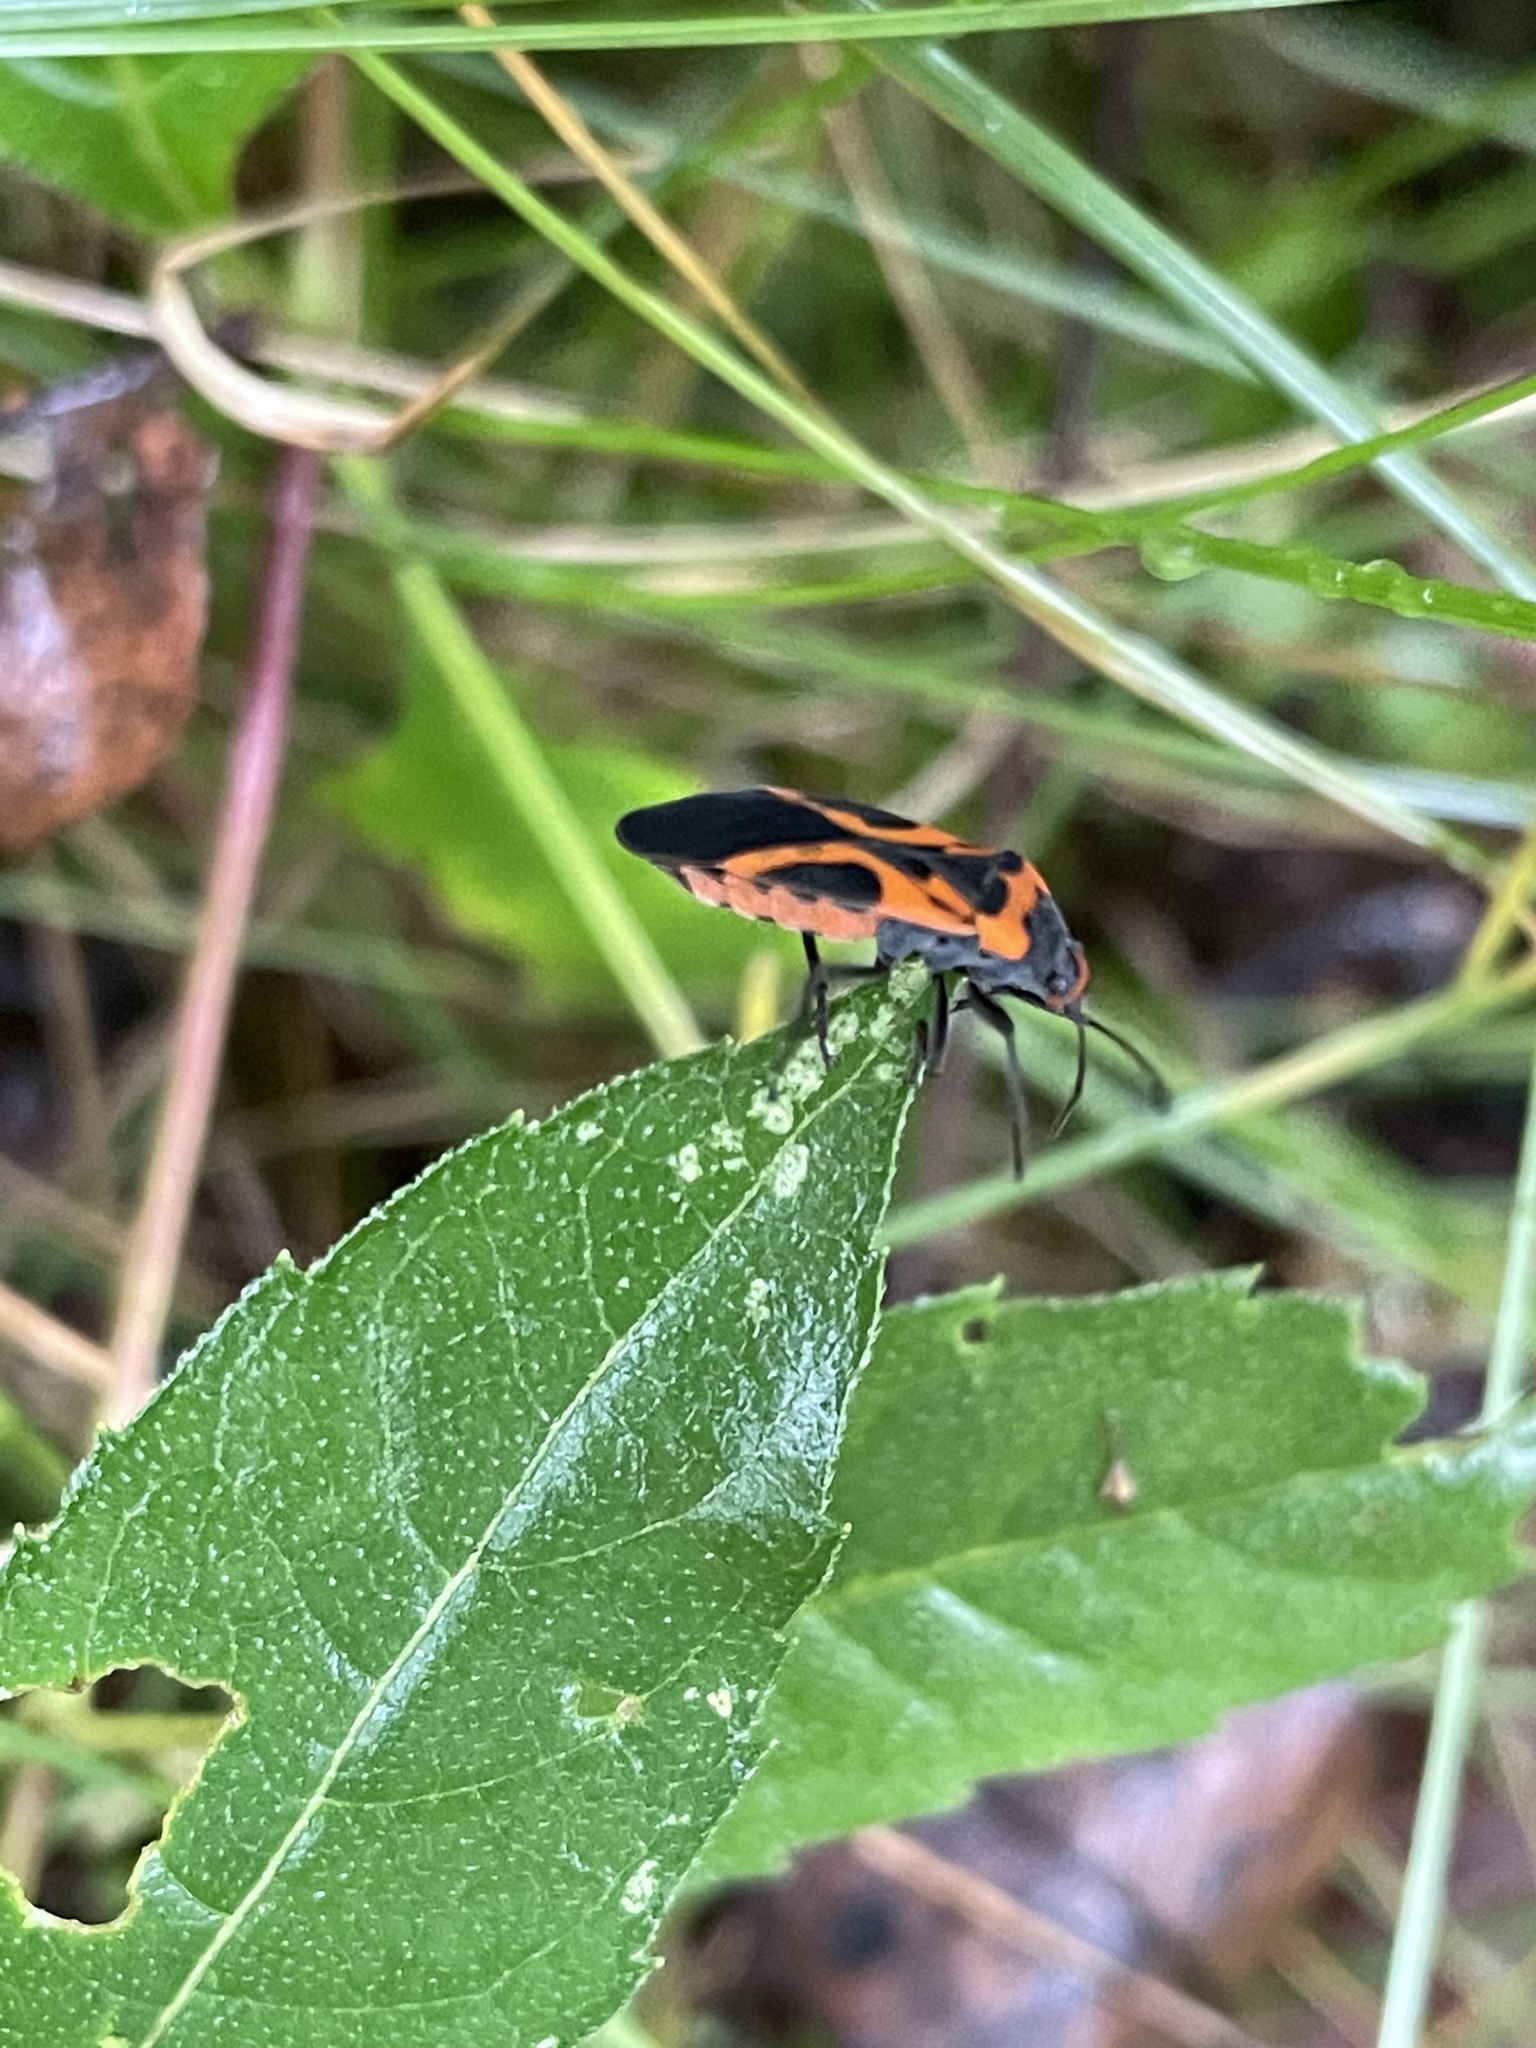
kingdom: Animalia
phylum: Arthropoda
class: Insecta
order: Hemiptera
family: Lygaeidae
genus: Lygaeus
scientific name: Lygaeus turcicus
